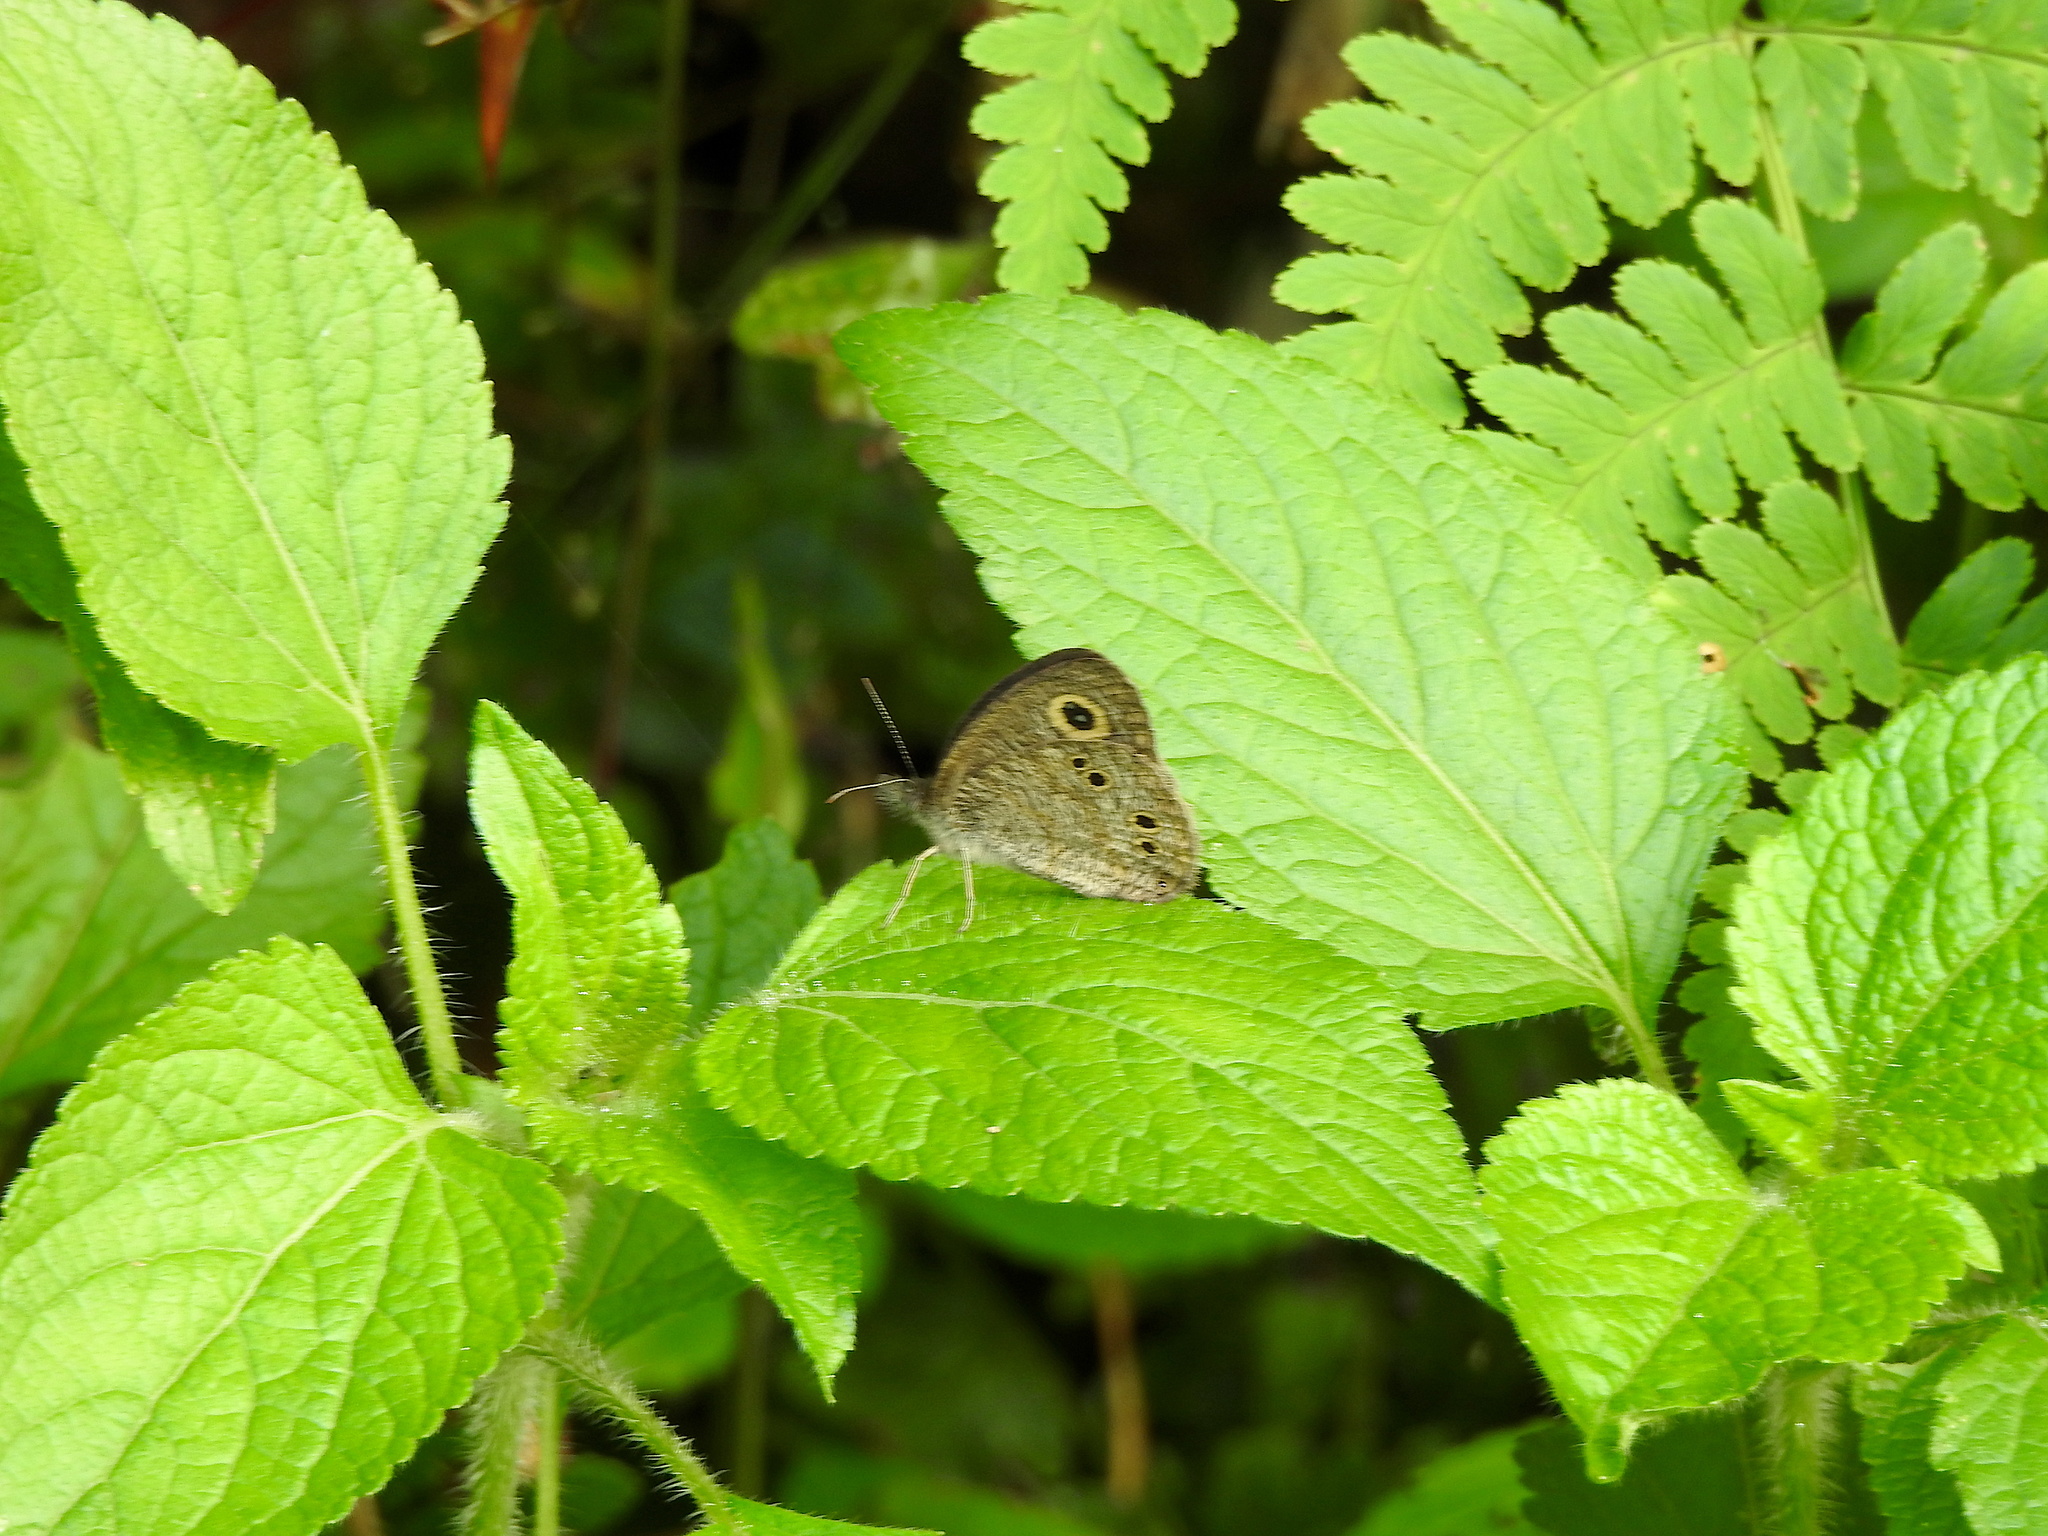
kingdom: Animalia
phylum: Arthropoda
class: Insecta
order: Lepidoptera
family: Nymphalidae
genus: Ypthima
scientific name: Ypthima baldus
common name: Common five-ring
